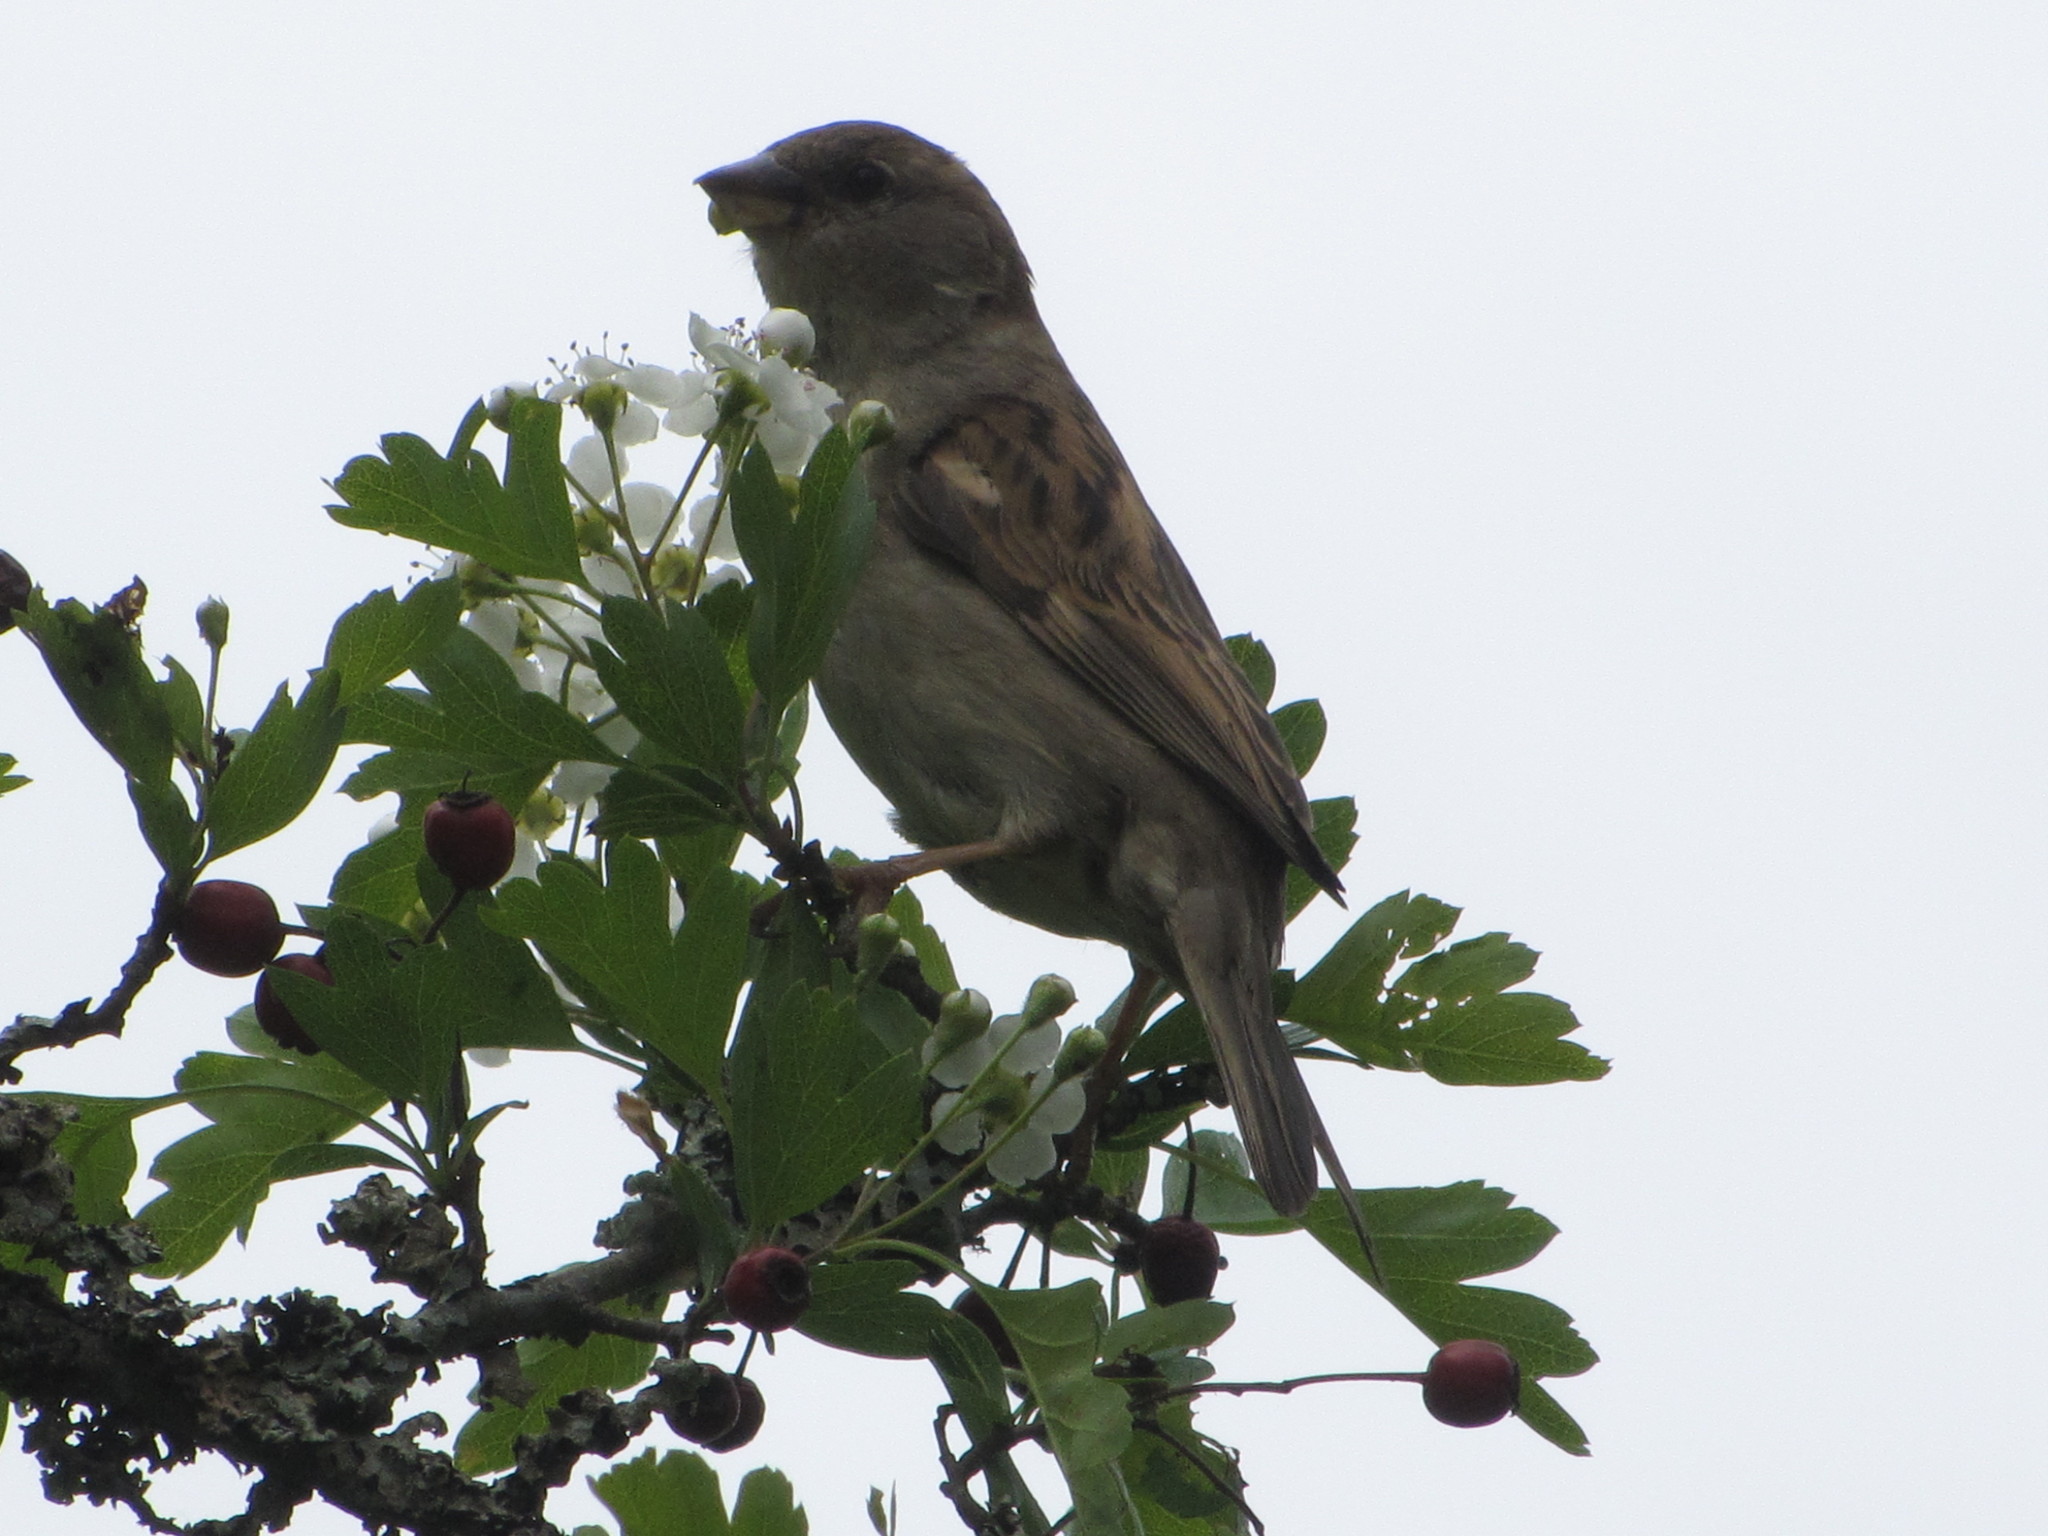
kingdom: Animalia
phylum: Chordata
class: Aves
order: Passeriformes
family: Passeridae
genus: Passer
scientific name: Passer domesticus
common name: House sparrow
